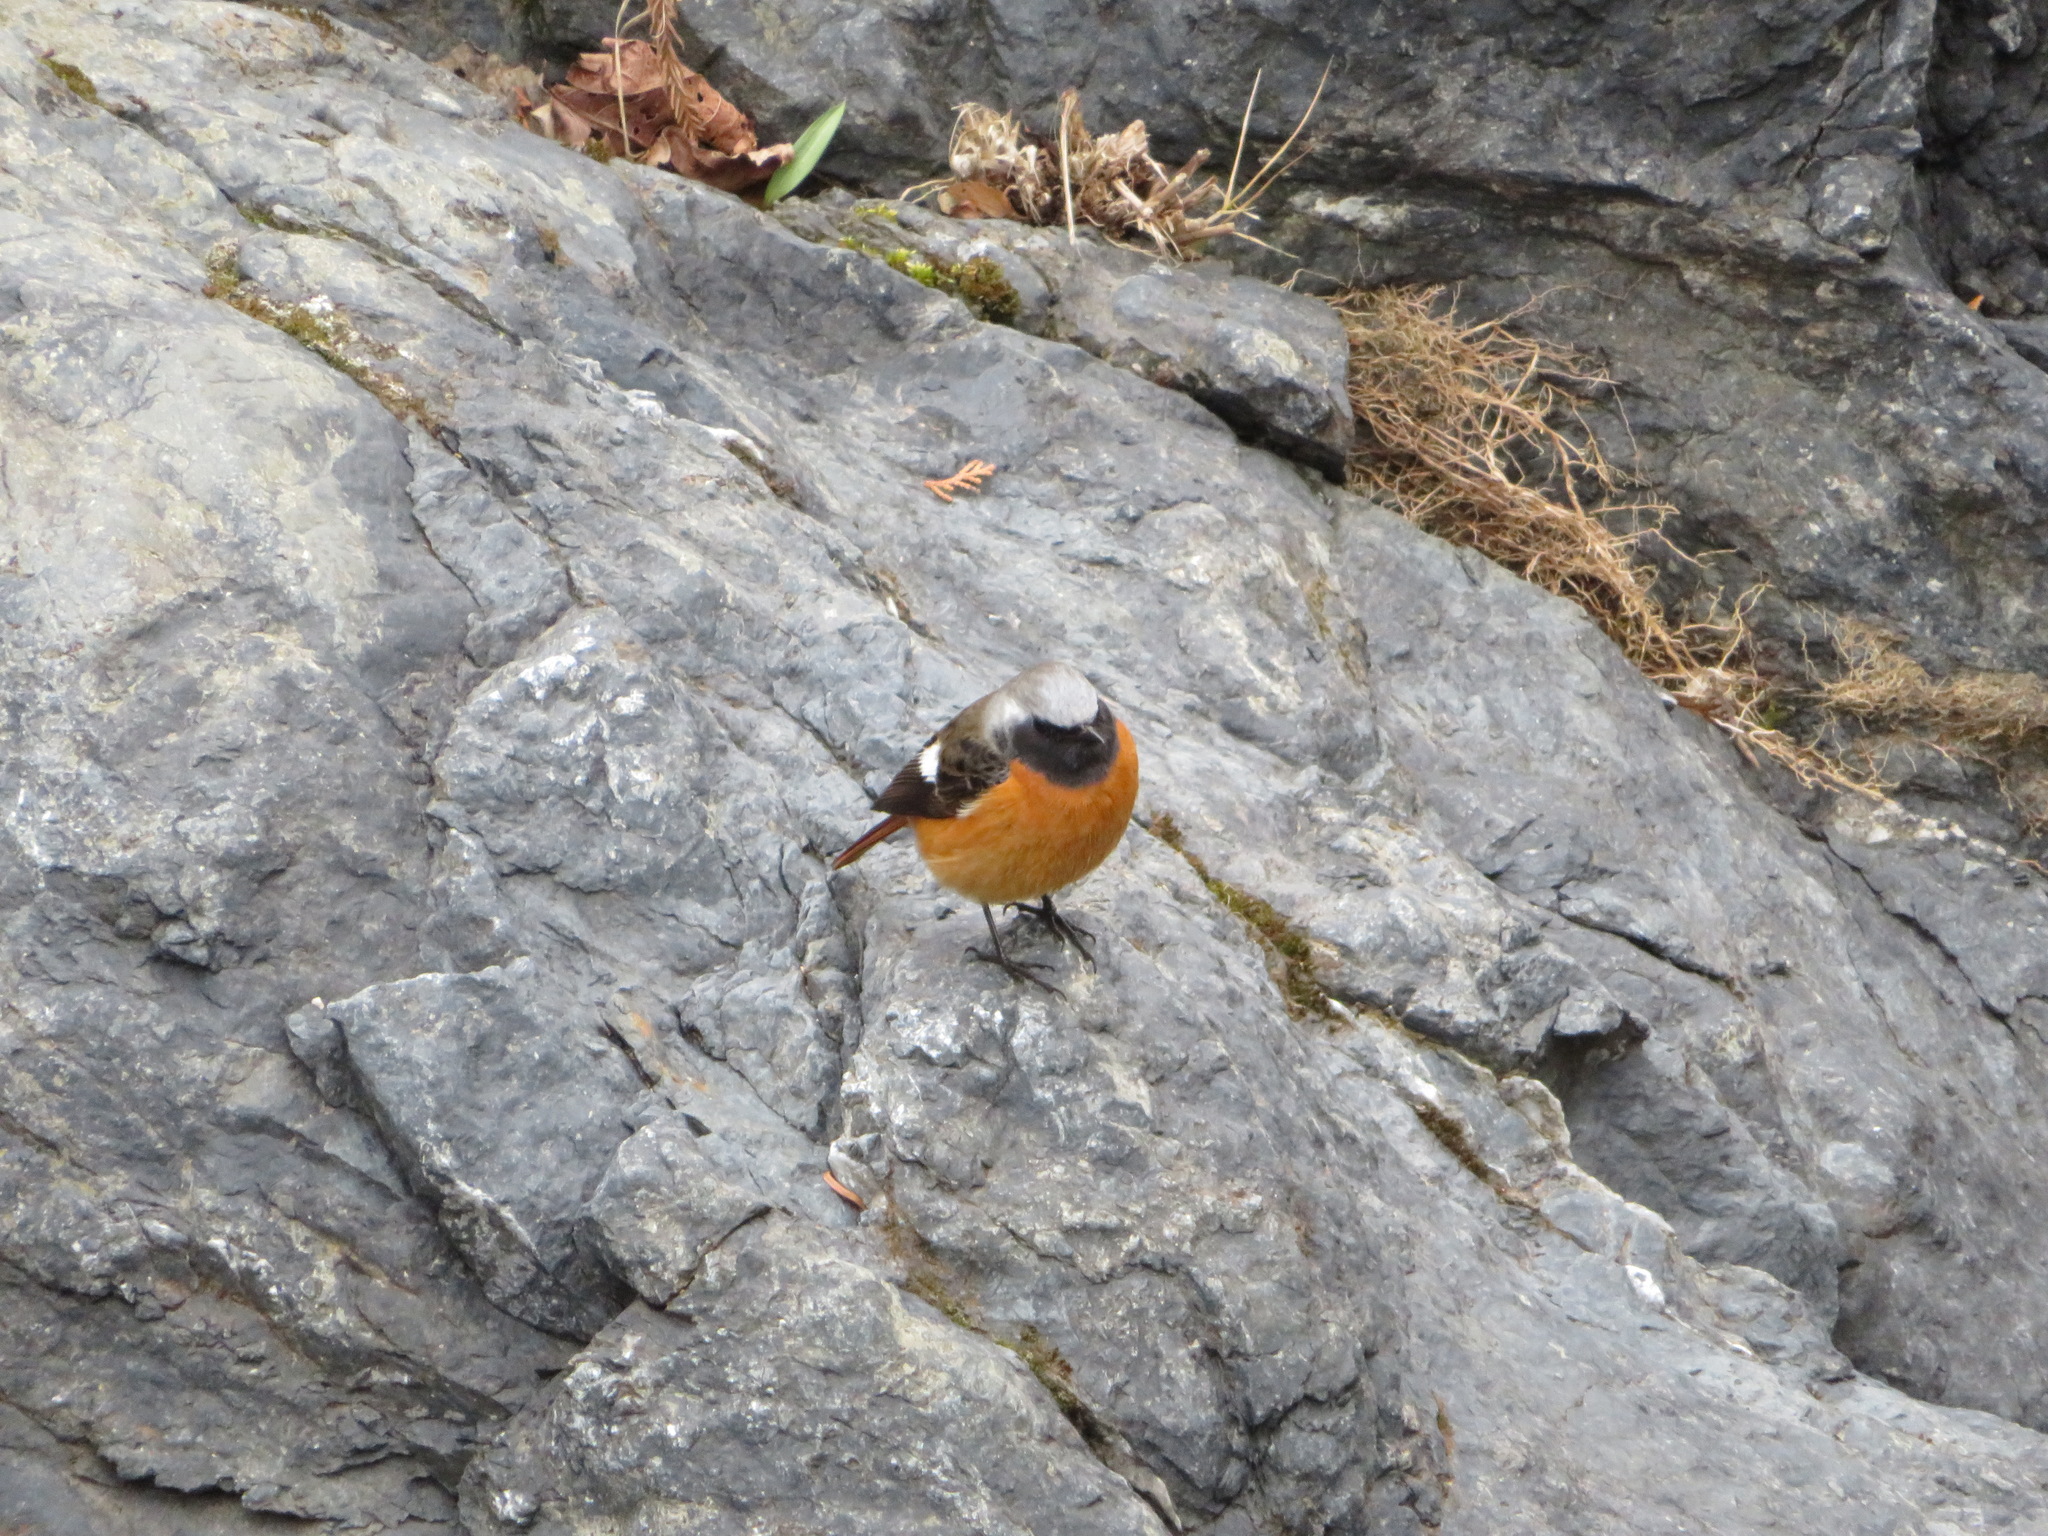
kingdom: Animalia
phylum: Chordata
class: Aves
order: Passeriformes
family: Muscicapidae
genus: Phoenicurus
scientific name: Phoenicurus auroreus
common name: Daurian redstart
